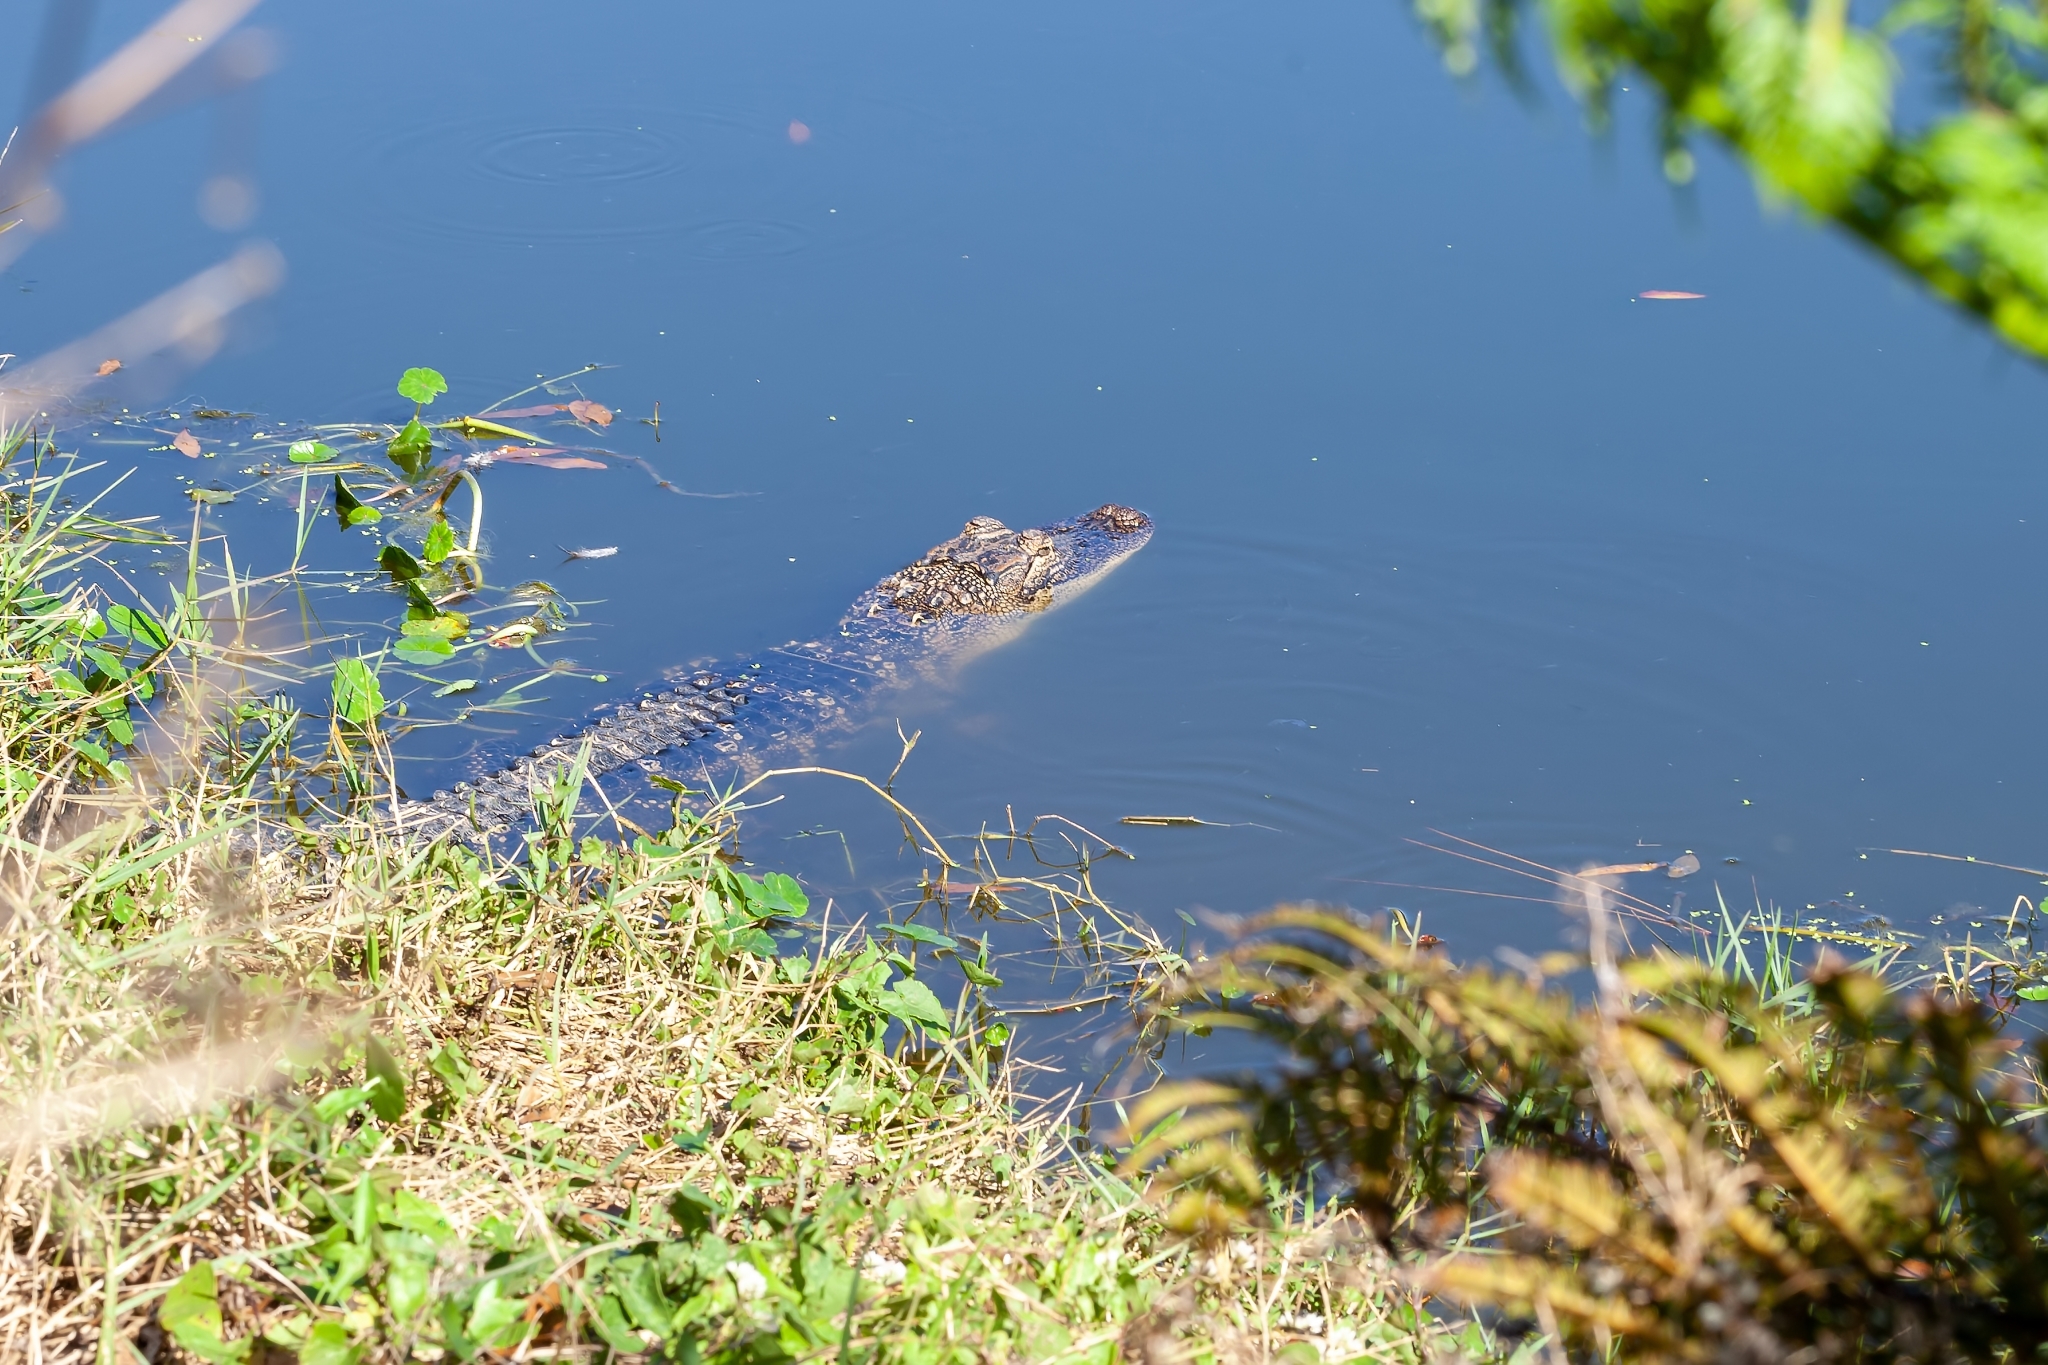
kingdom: Animalia
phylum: Chordata
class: Crocodylia
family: Alligatoridae
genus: Alligator
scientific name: Alligator mississippiensis
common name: American alligator
